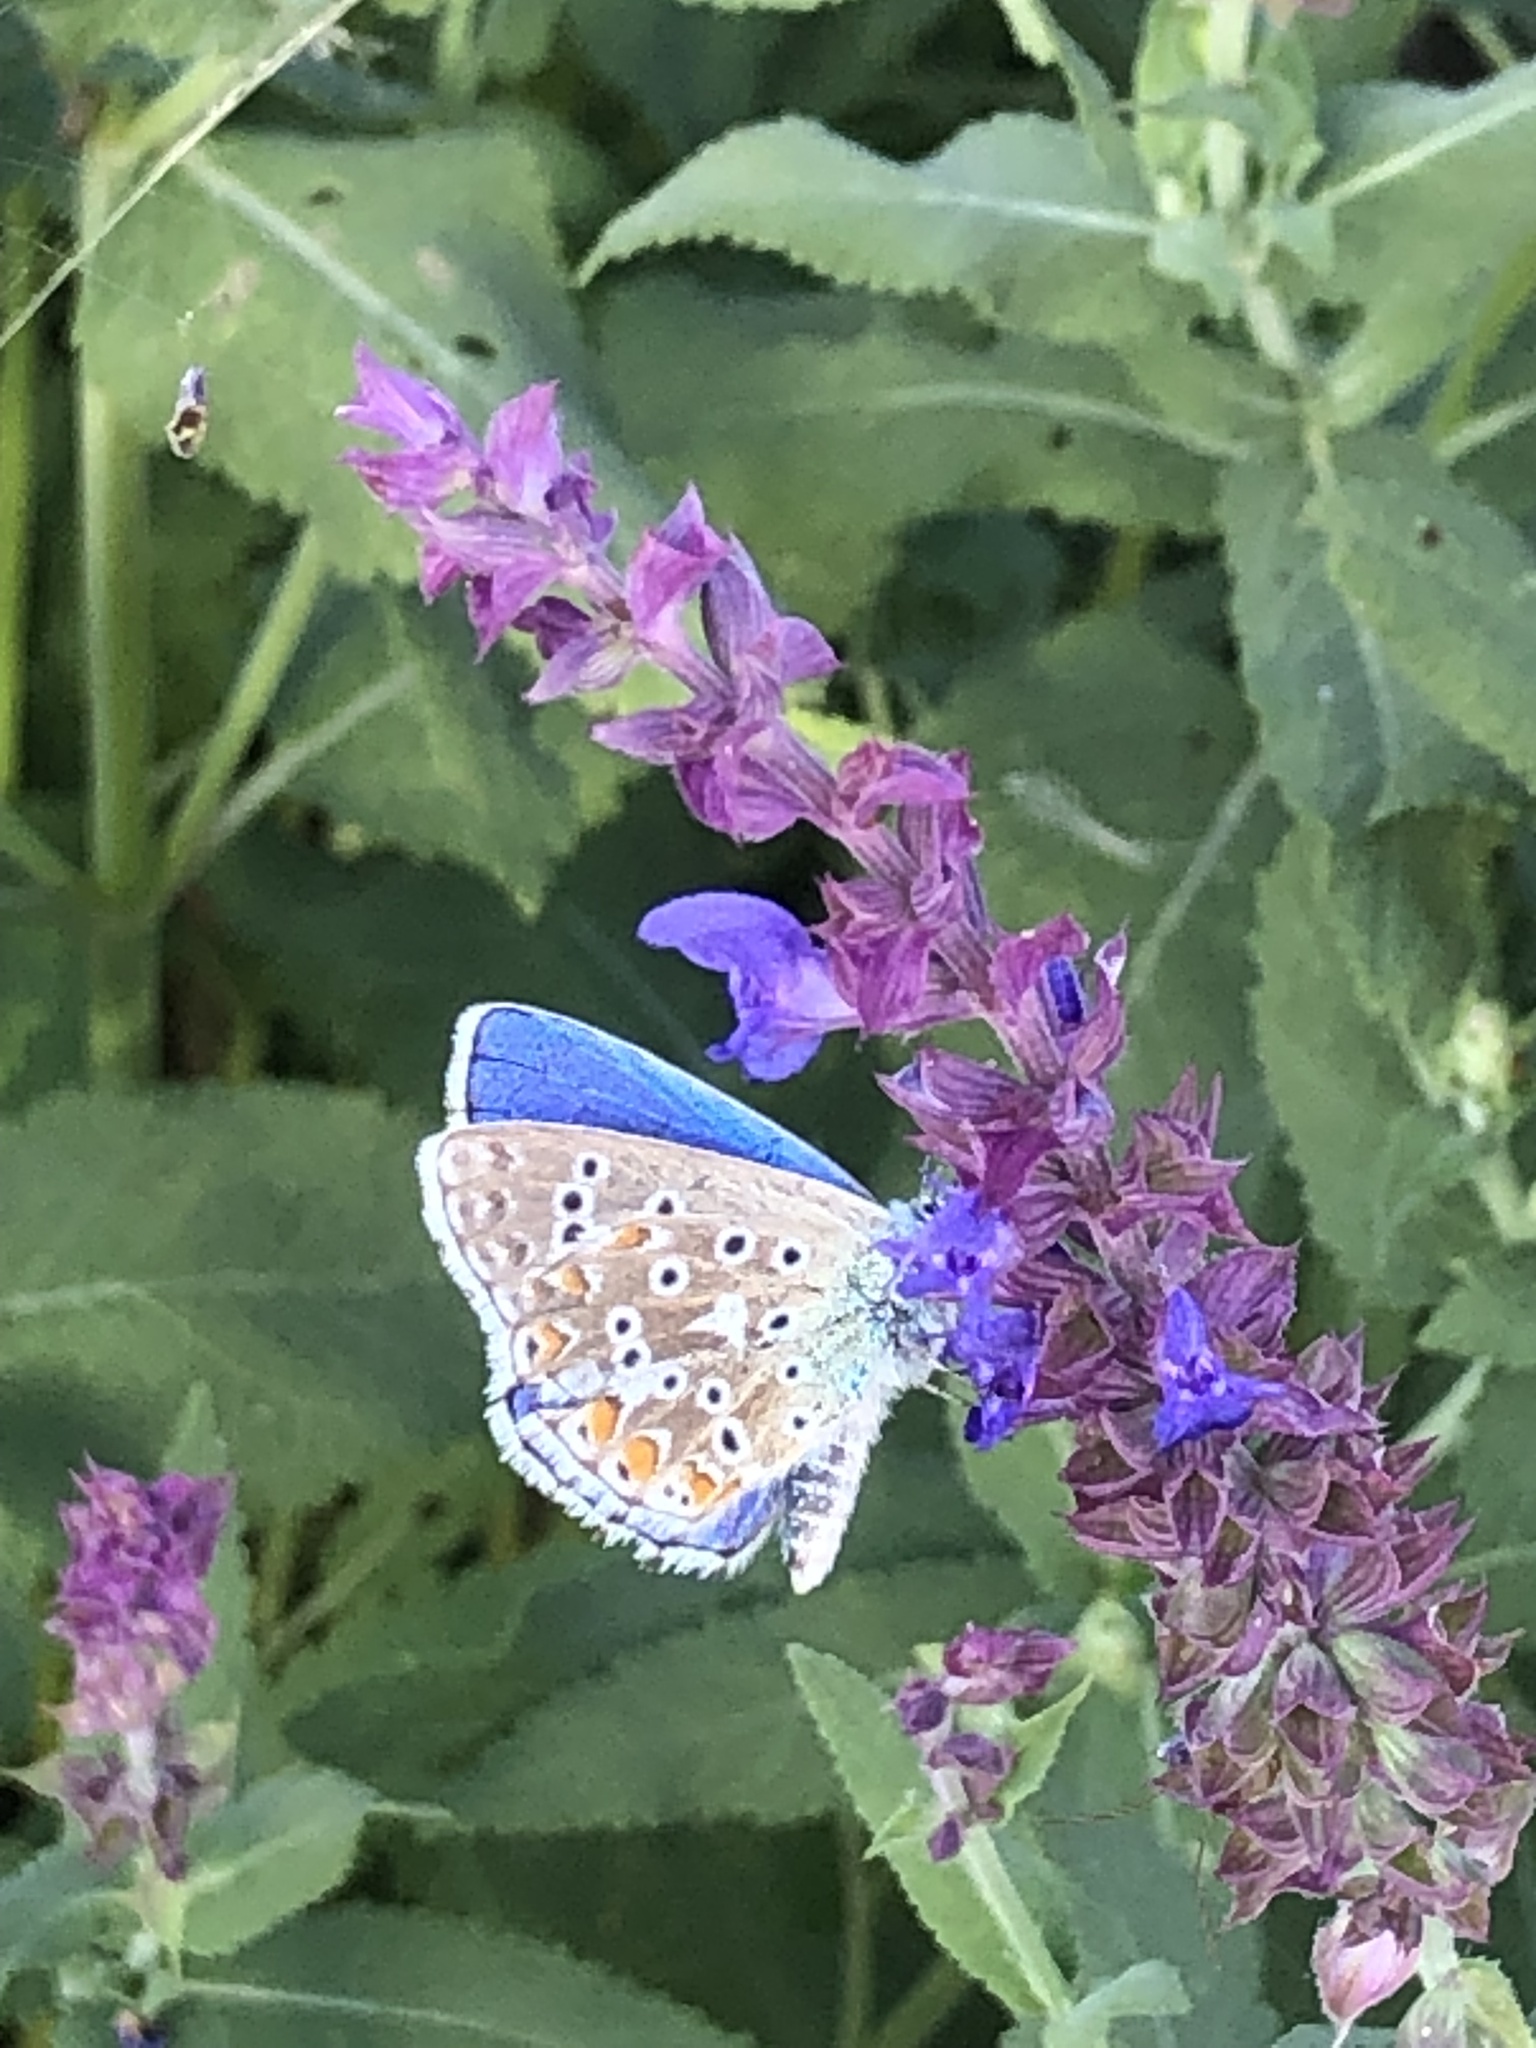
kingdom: Animalia
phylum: Arthropoda
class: Insecta
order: Lepidoptera
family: Lycaenidae
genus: Polyommatus
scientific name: Polyommatus icarus
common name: Common blue
